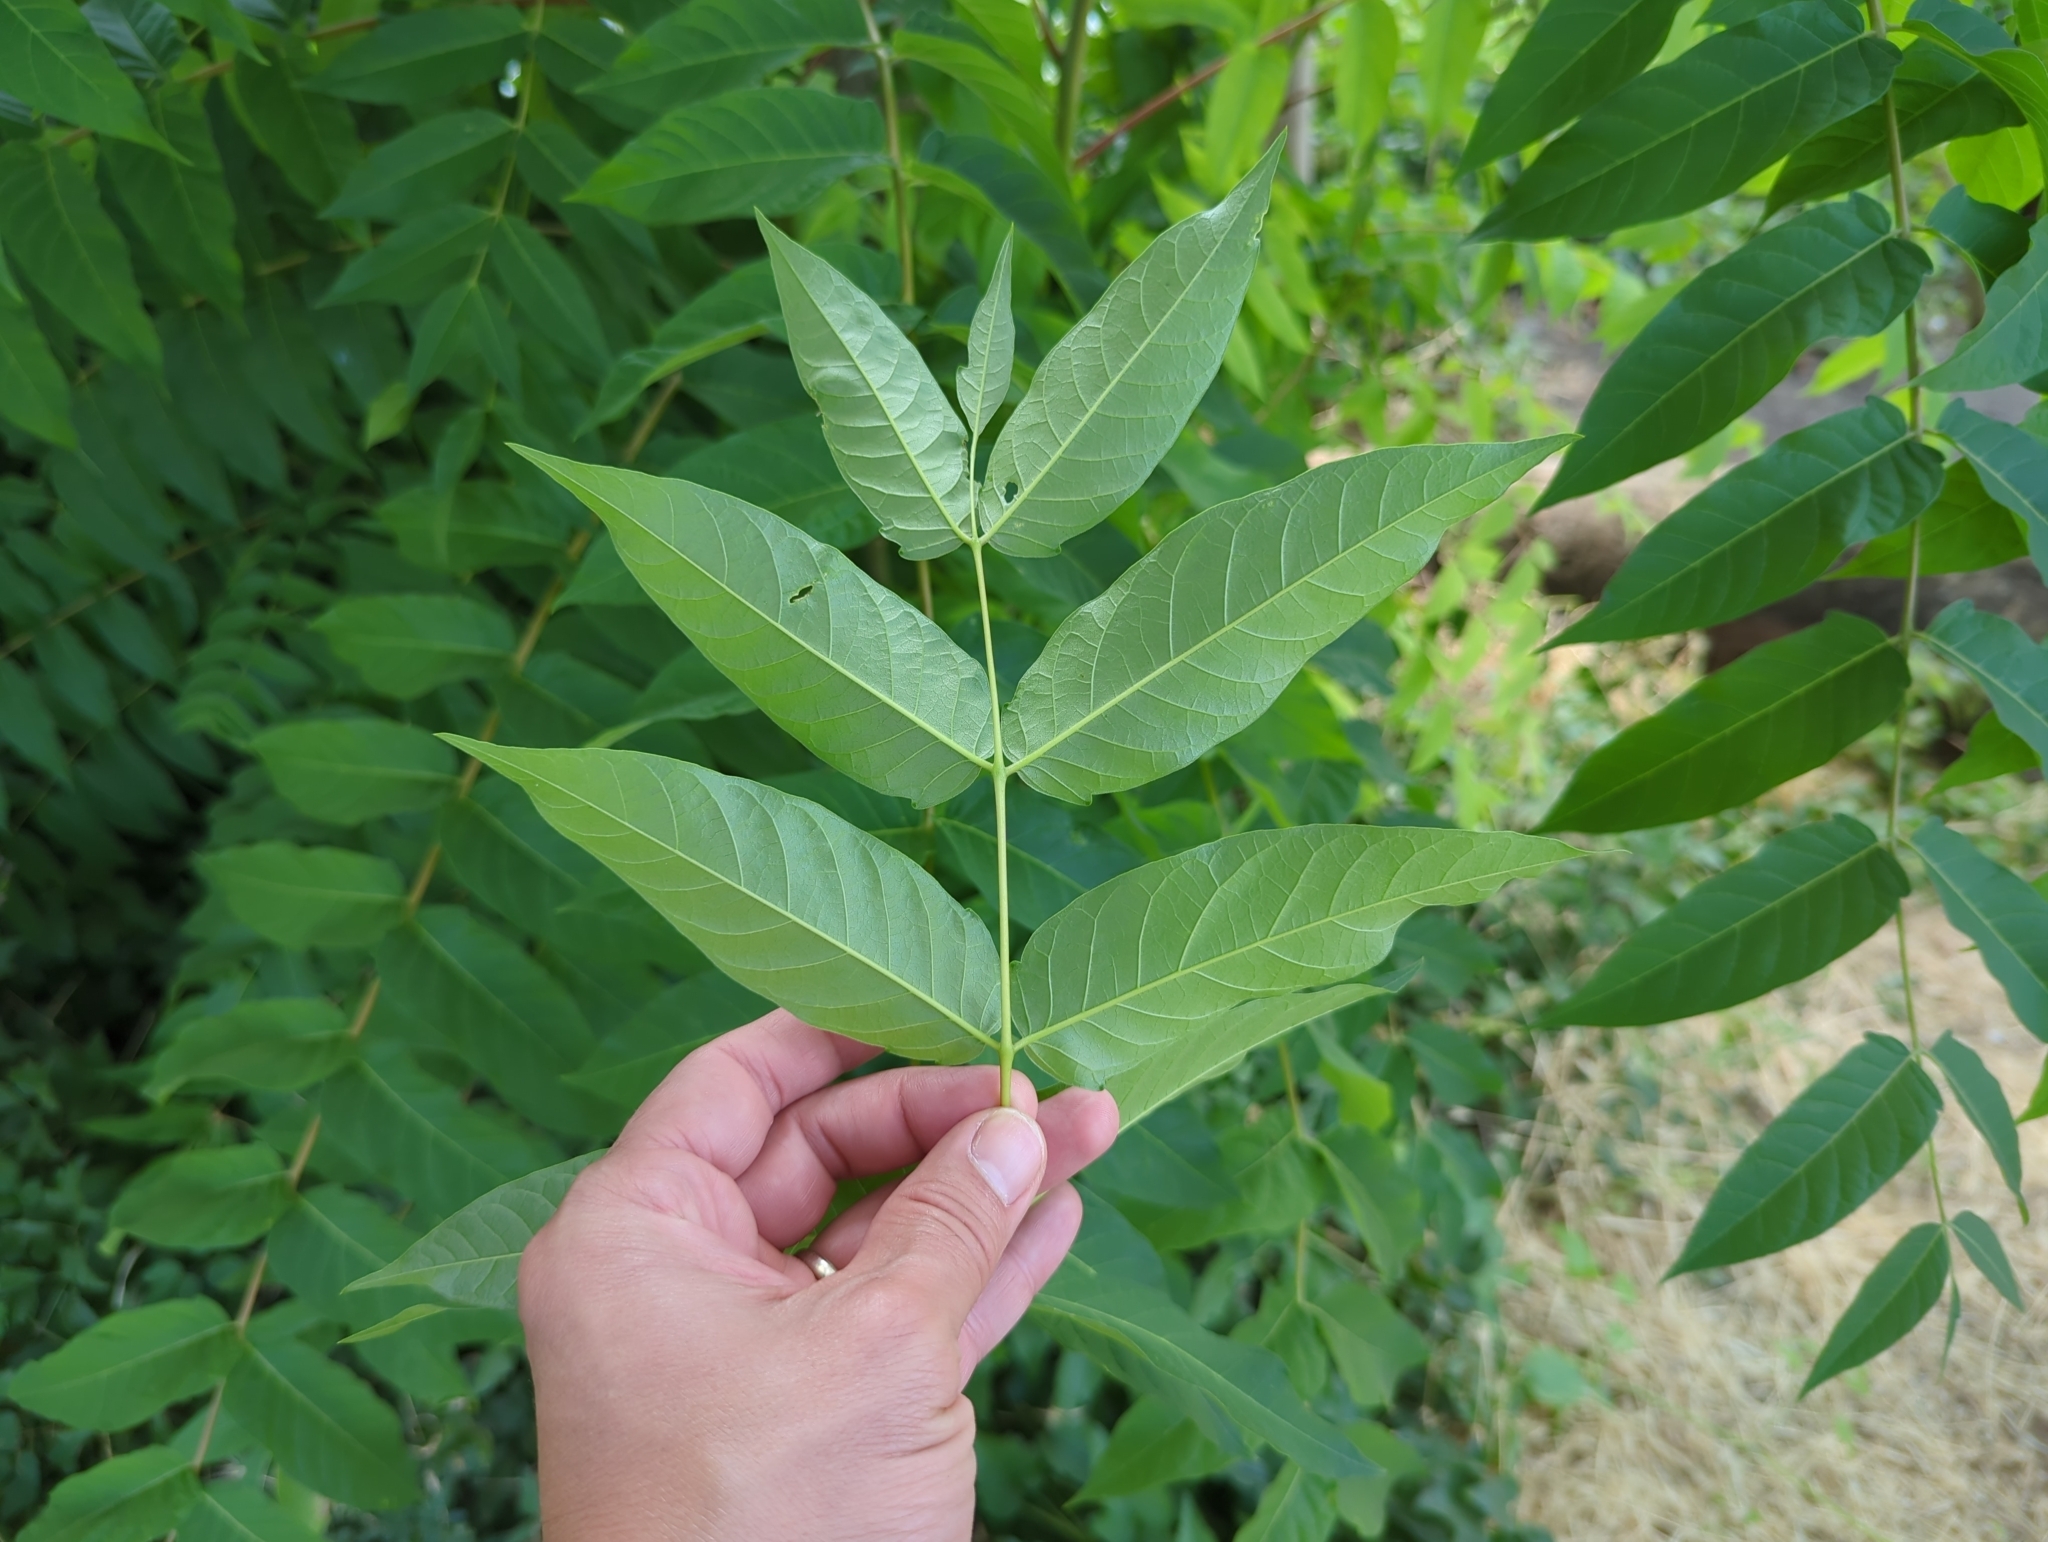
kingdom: Plantae
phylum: Tracheophyta
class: Magnoliopsida
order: Sapindales
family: Simaroubaceae
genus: Ailanthus
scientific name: Ailanthus altissima
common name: Tree-of-heaven
